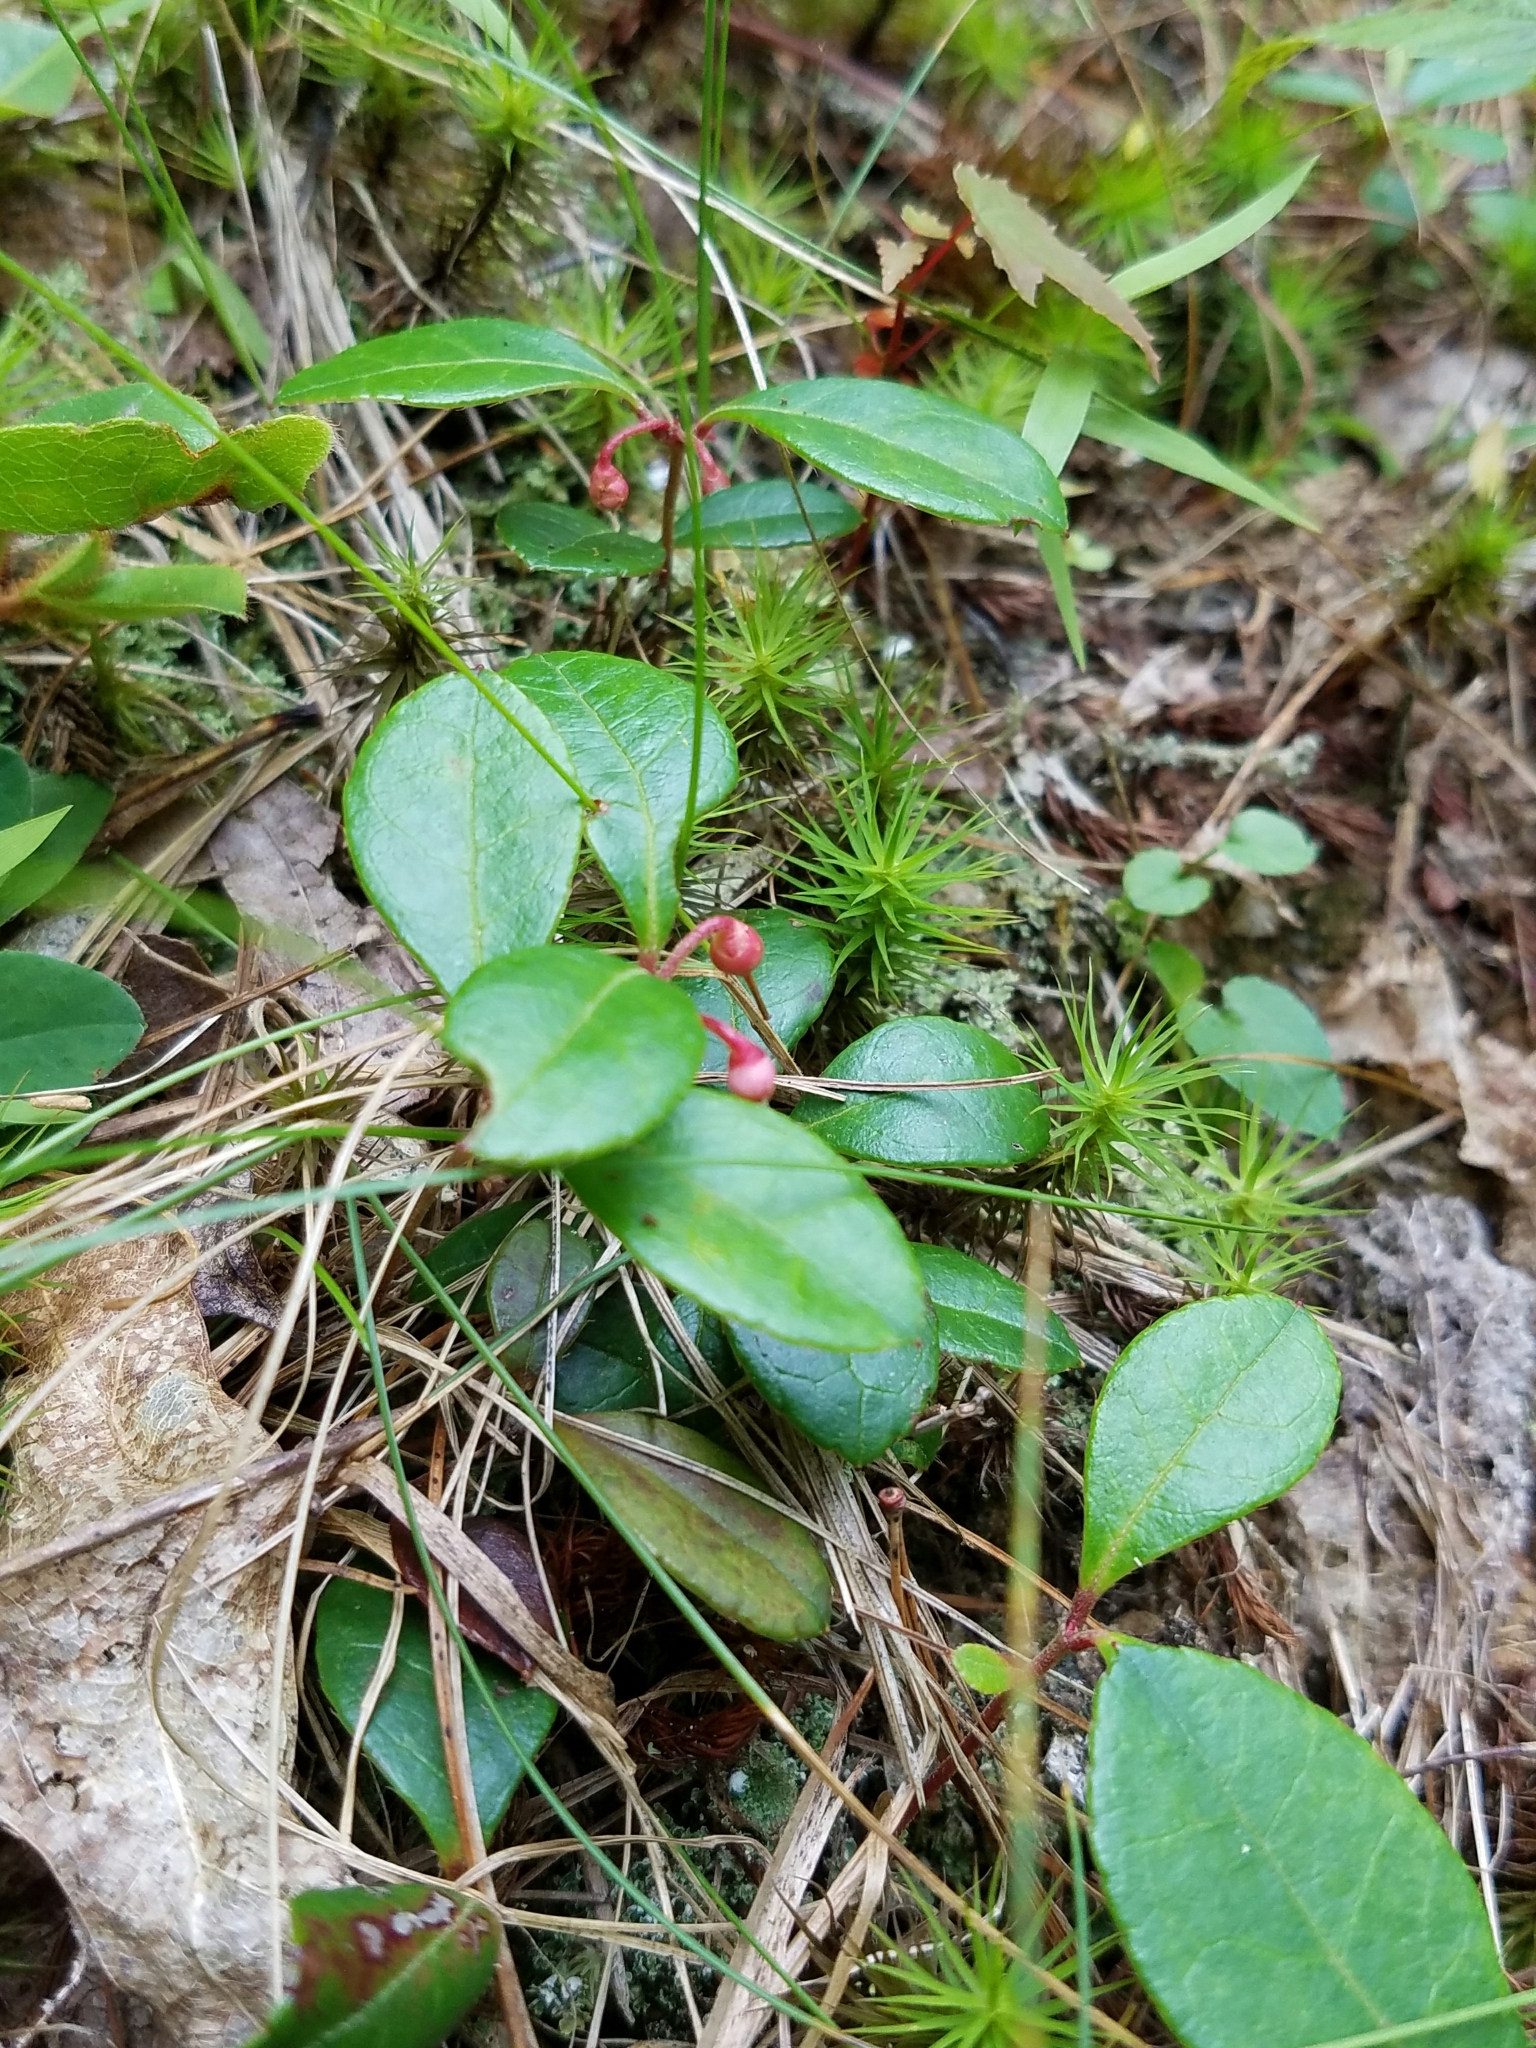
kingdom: Plantae
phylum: Tracheophyta
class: Magnoliopsida
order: Ericales
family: Ericaceae
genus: Gaultheria
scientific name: Gaultheria procumbens
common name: Checkerberry
